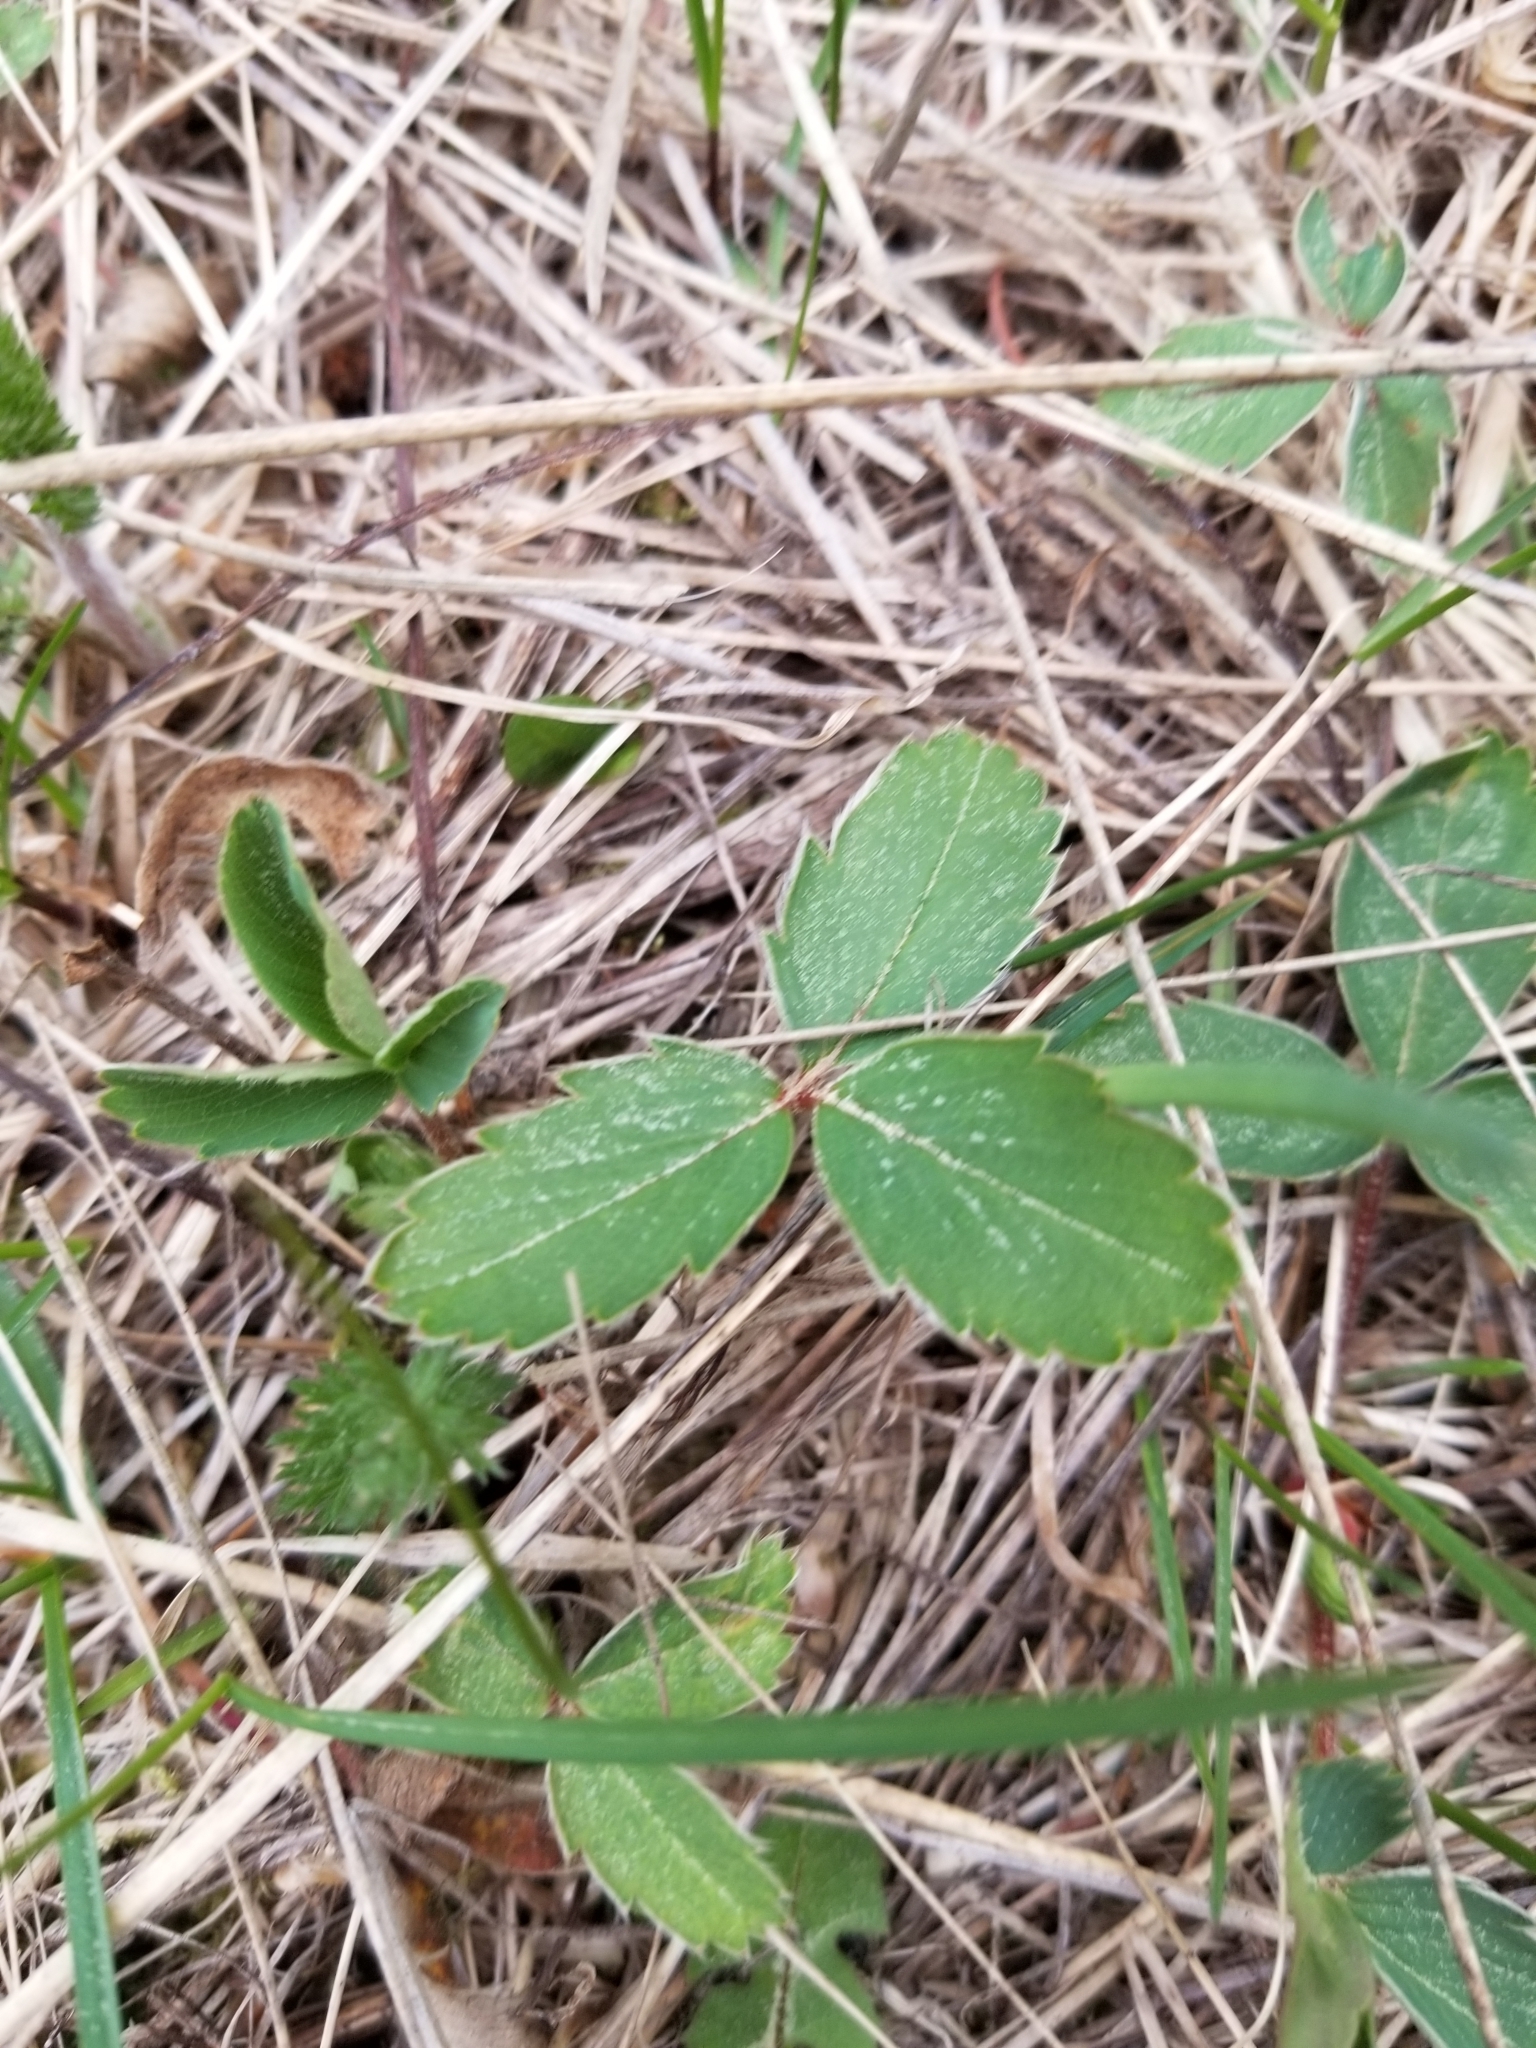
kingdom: Plantae
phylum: Tracheophyta
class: Magnoliopsida
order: Rosales
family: Rosaceae
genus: Fragaria
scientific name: Fragaria virginiana
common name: Thickleaved wild strawberry
